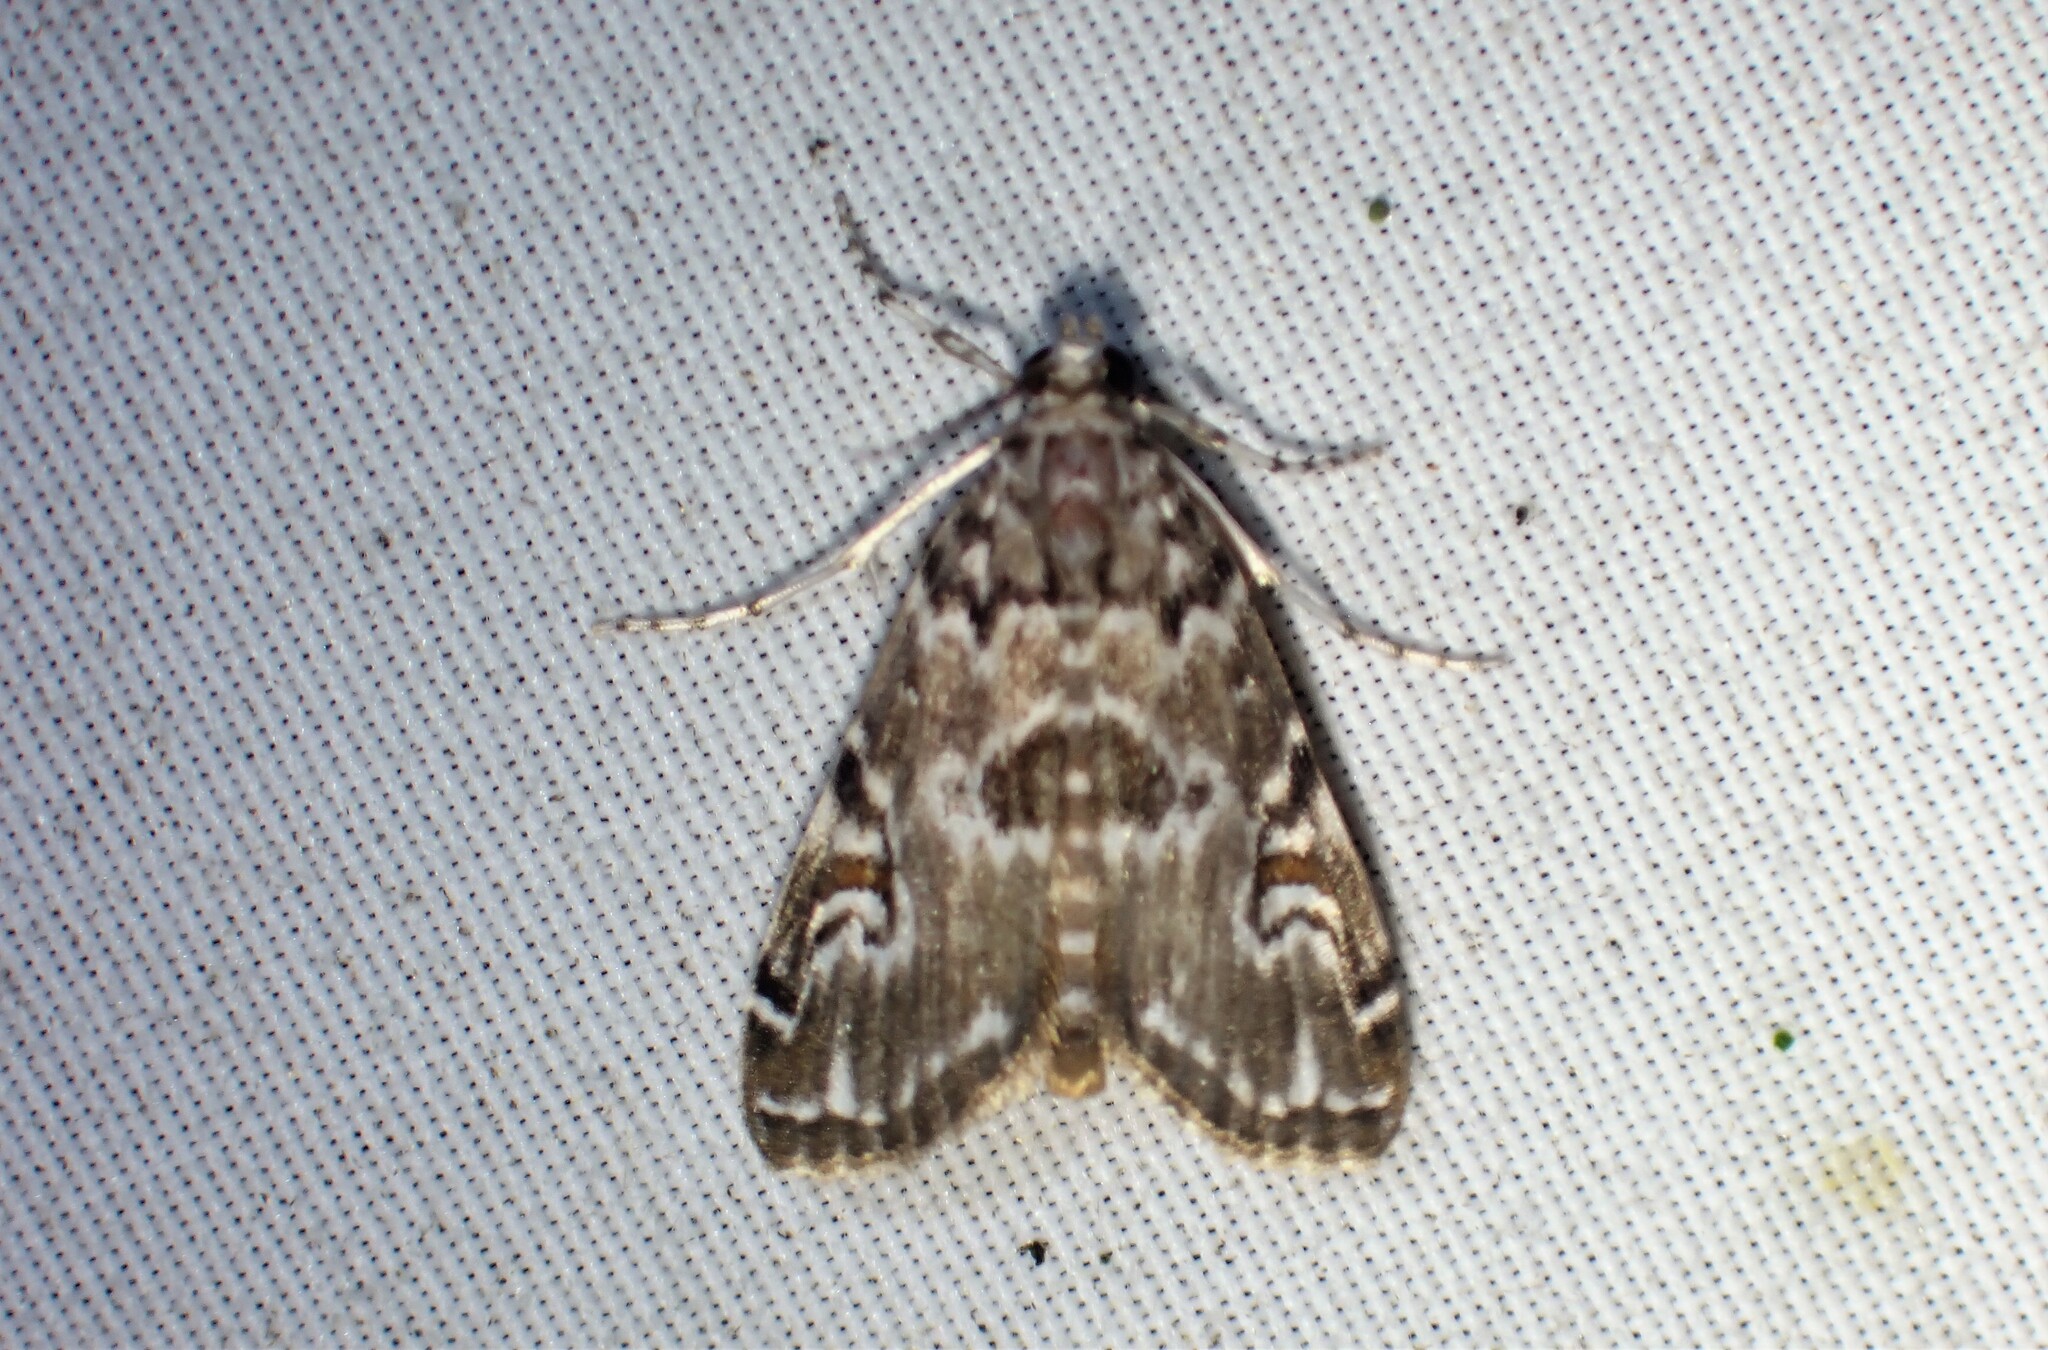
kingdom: Animalia
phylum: Arthropoda
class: Insecta
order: Lepidoptera
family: Crambidae
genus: Elophila
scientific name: Elophila gyralis
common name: Waterlily borer moth
